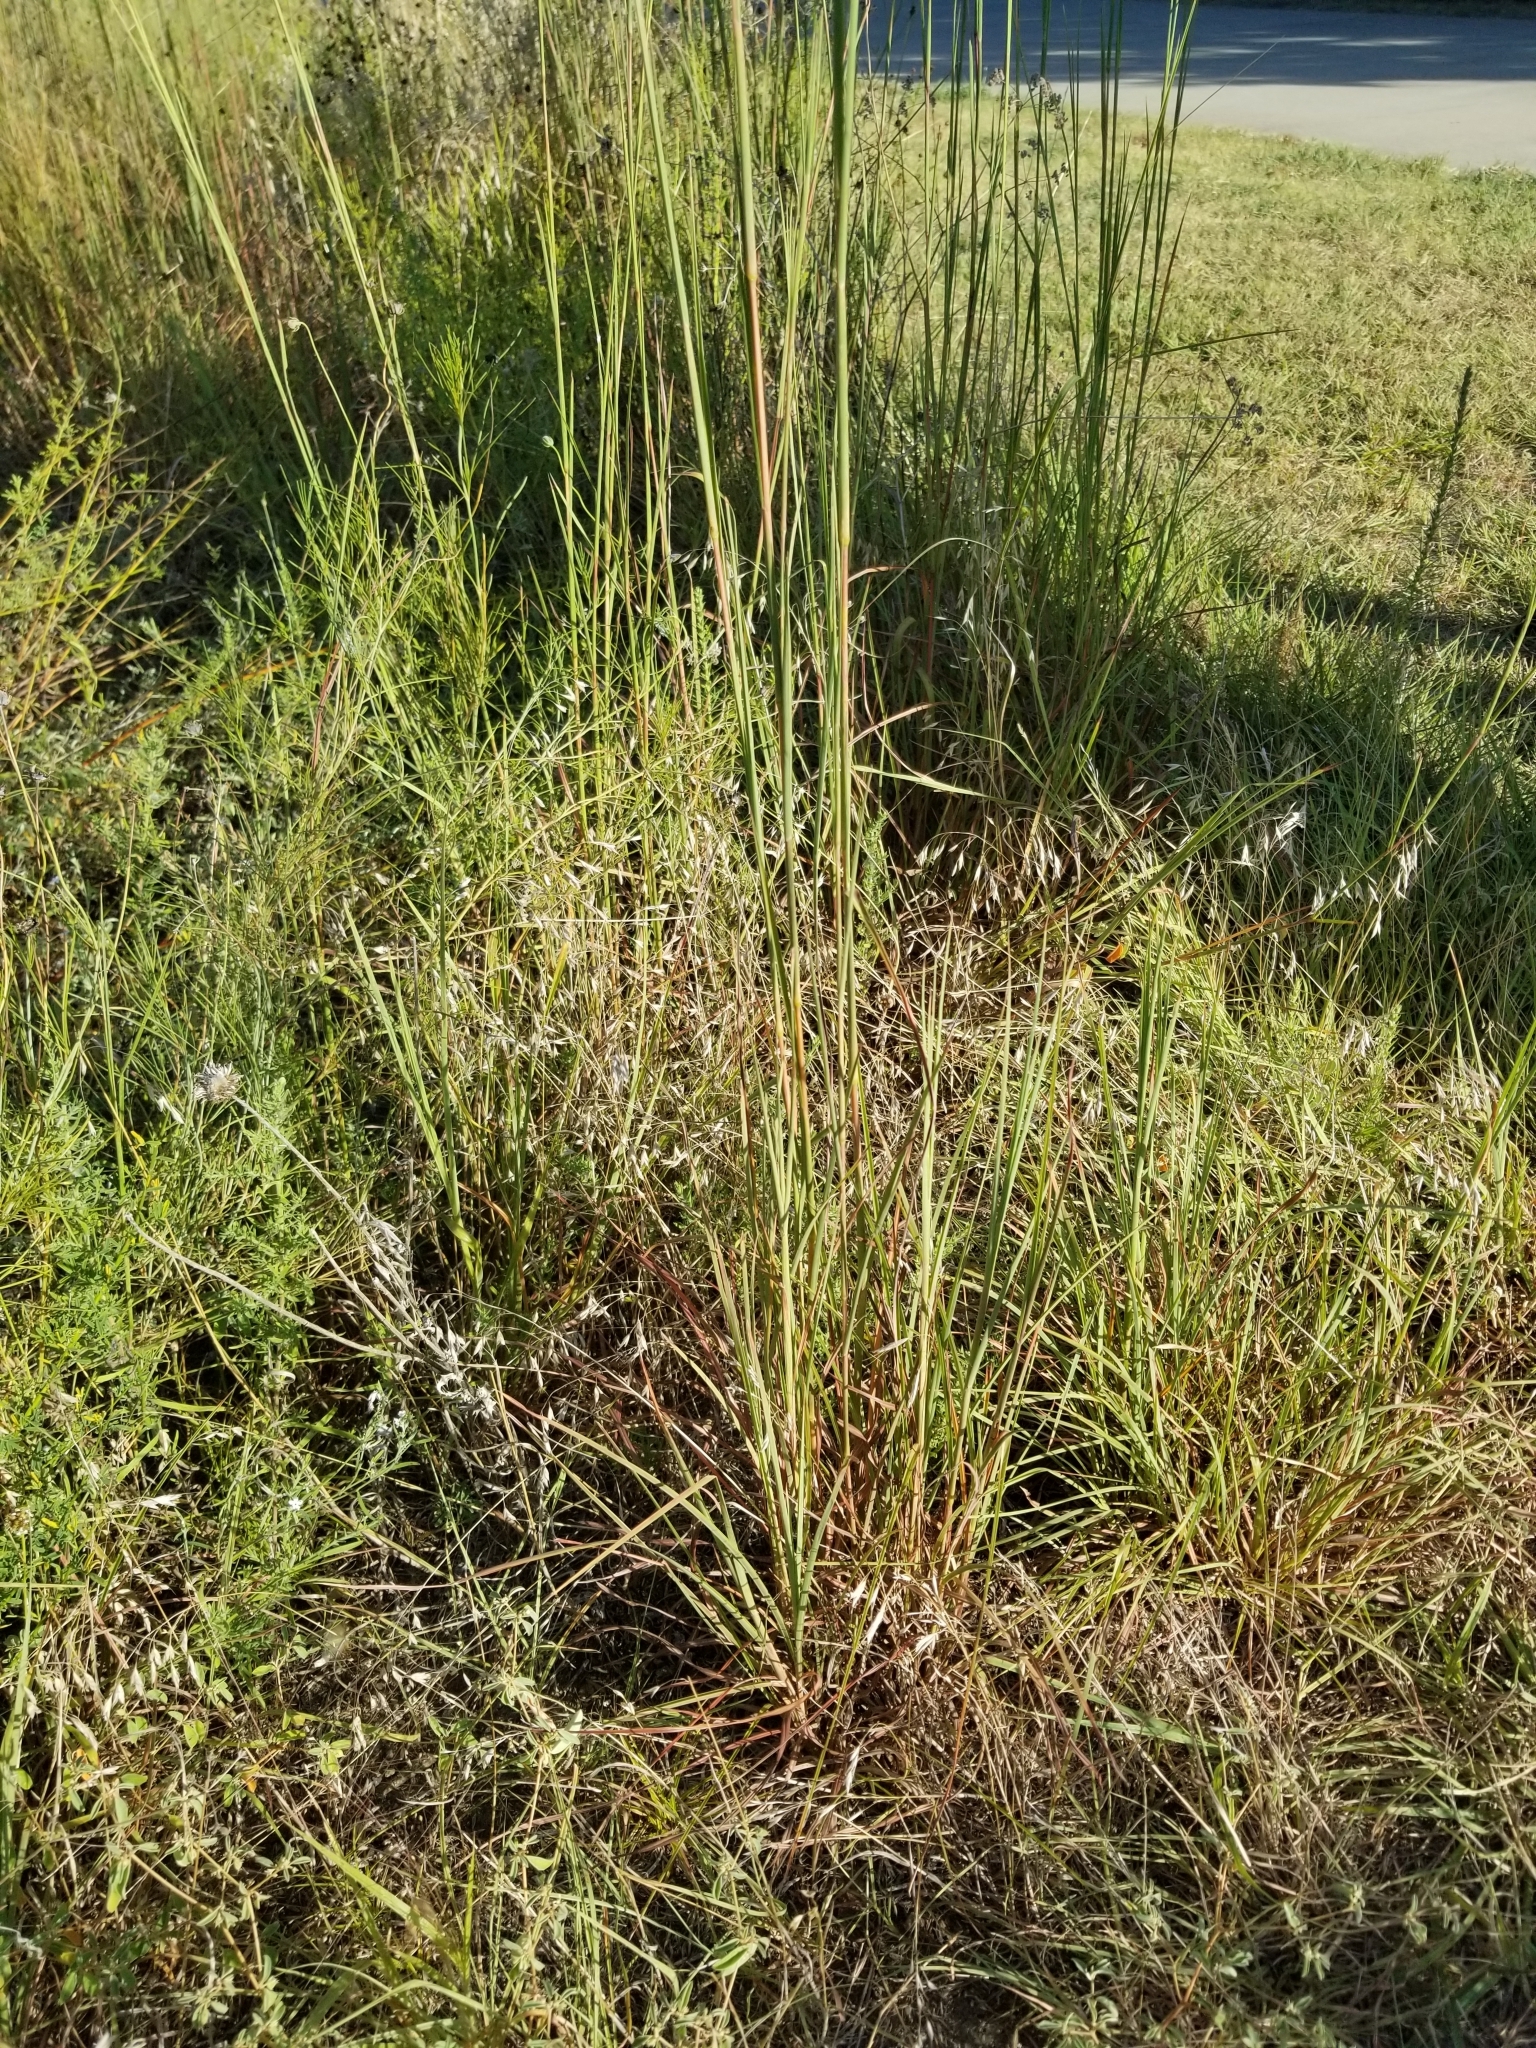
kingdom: Plantae
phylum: Tracheophyta
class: Liliopsida
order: Poales
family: Poaceae
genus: Schizachyrium
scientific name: Schizachyrium scoparium
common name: Little bluestem
